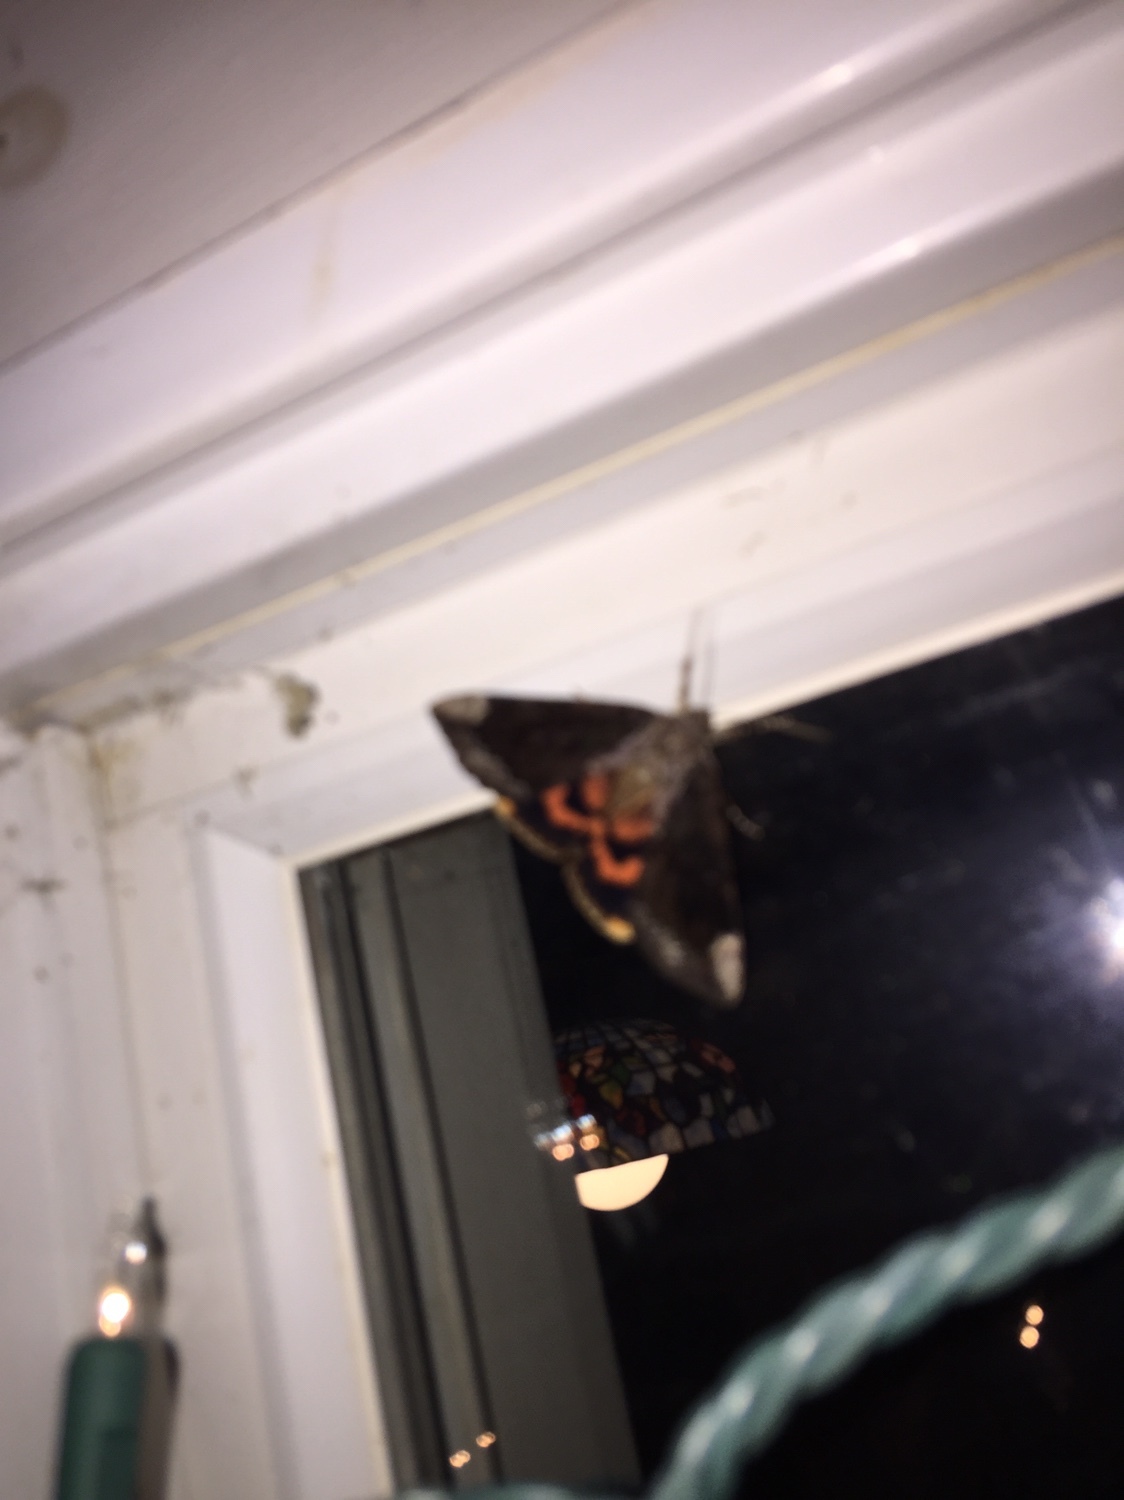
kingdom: Animalia
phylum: Arthropoda
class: Insecta
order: Lepidoptera
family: Erebidae
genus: Catocala
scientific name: Catocala innubens
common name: Betrothed underwing
